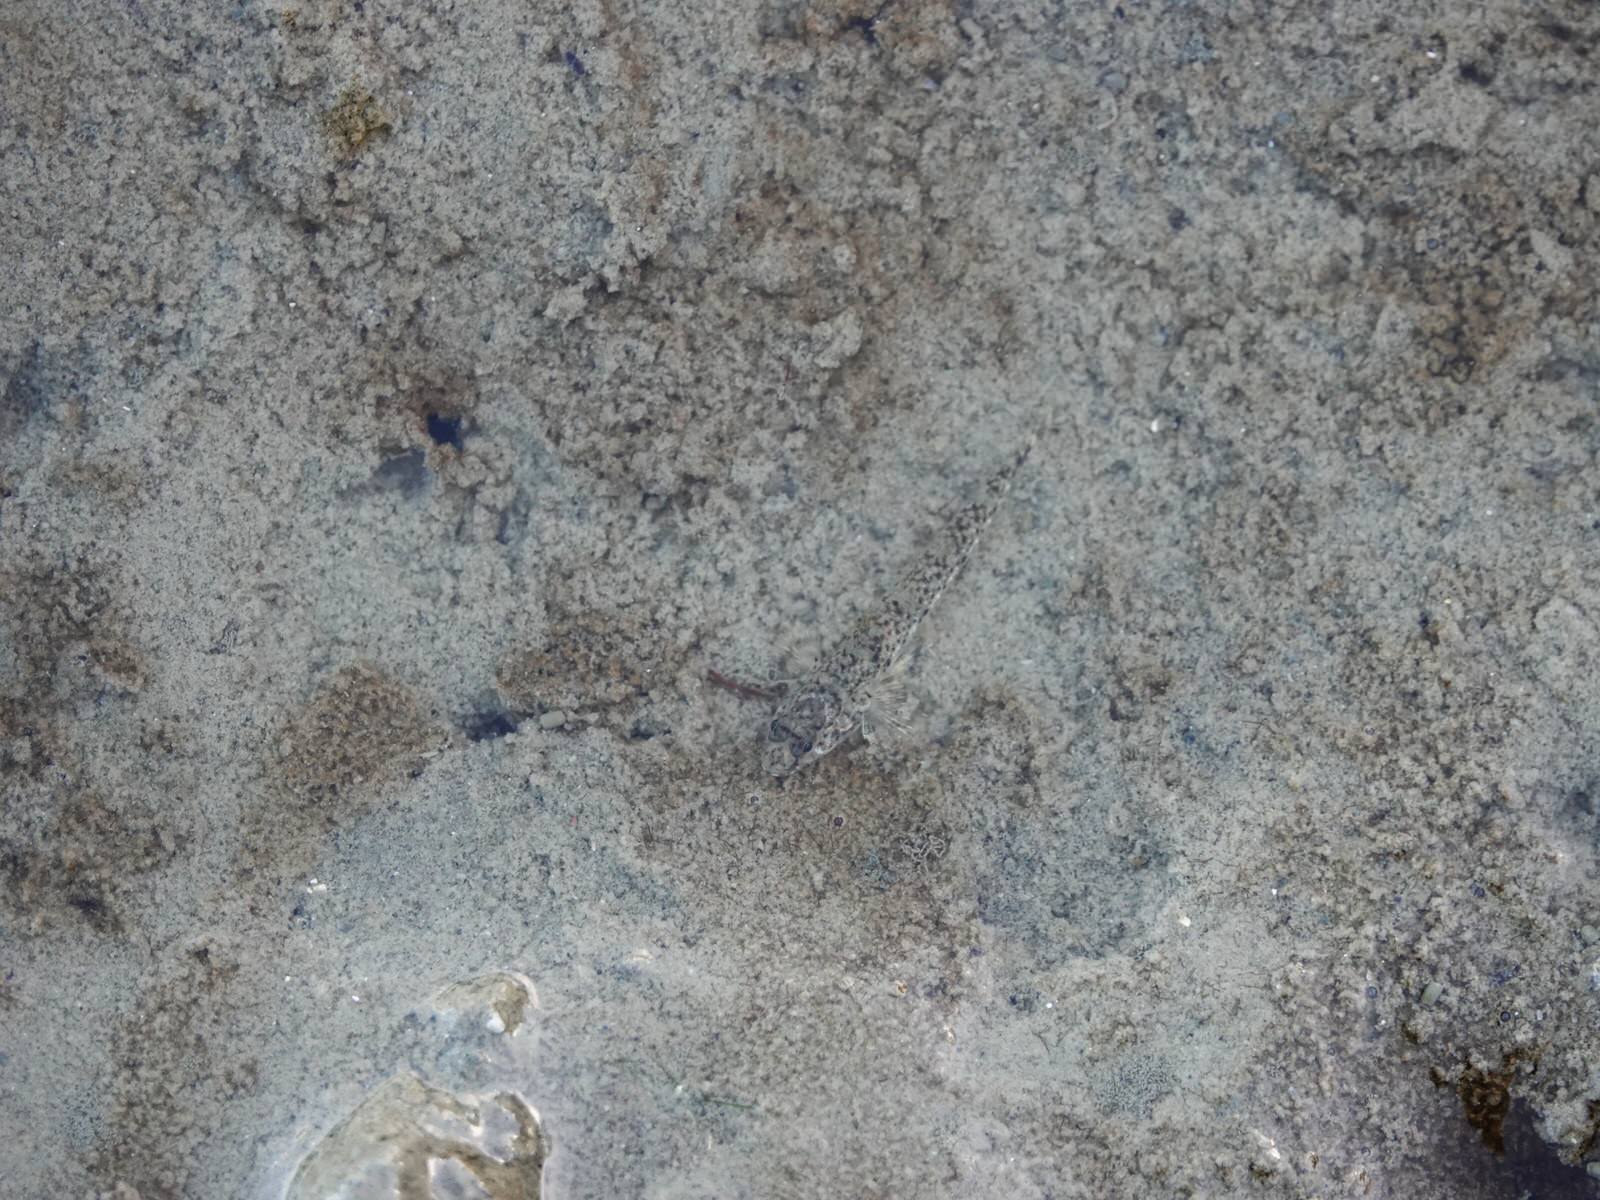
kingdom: Animalia
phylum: Chordata
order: Perciformes
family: Gobiidae
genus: Favonigobius
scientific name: Favonigobius exquisitus
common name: Exquisite sand-goby
